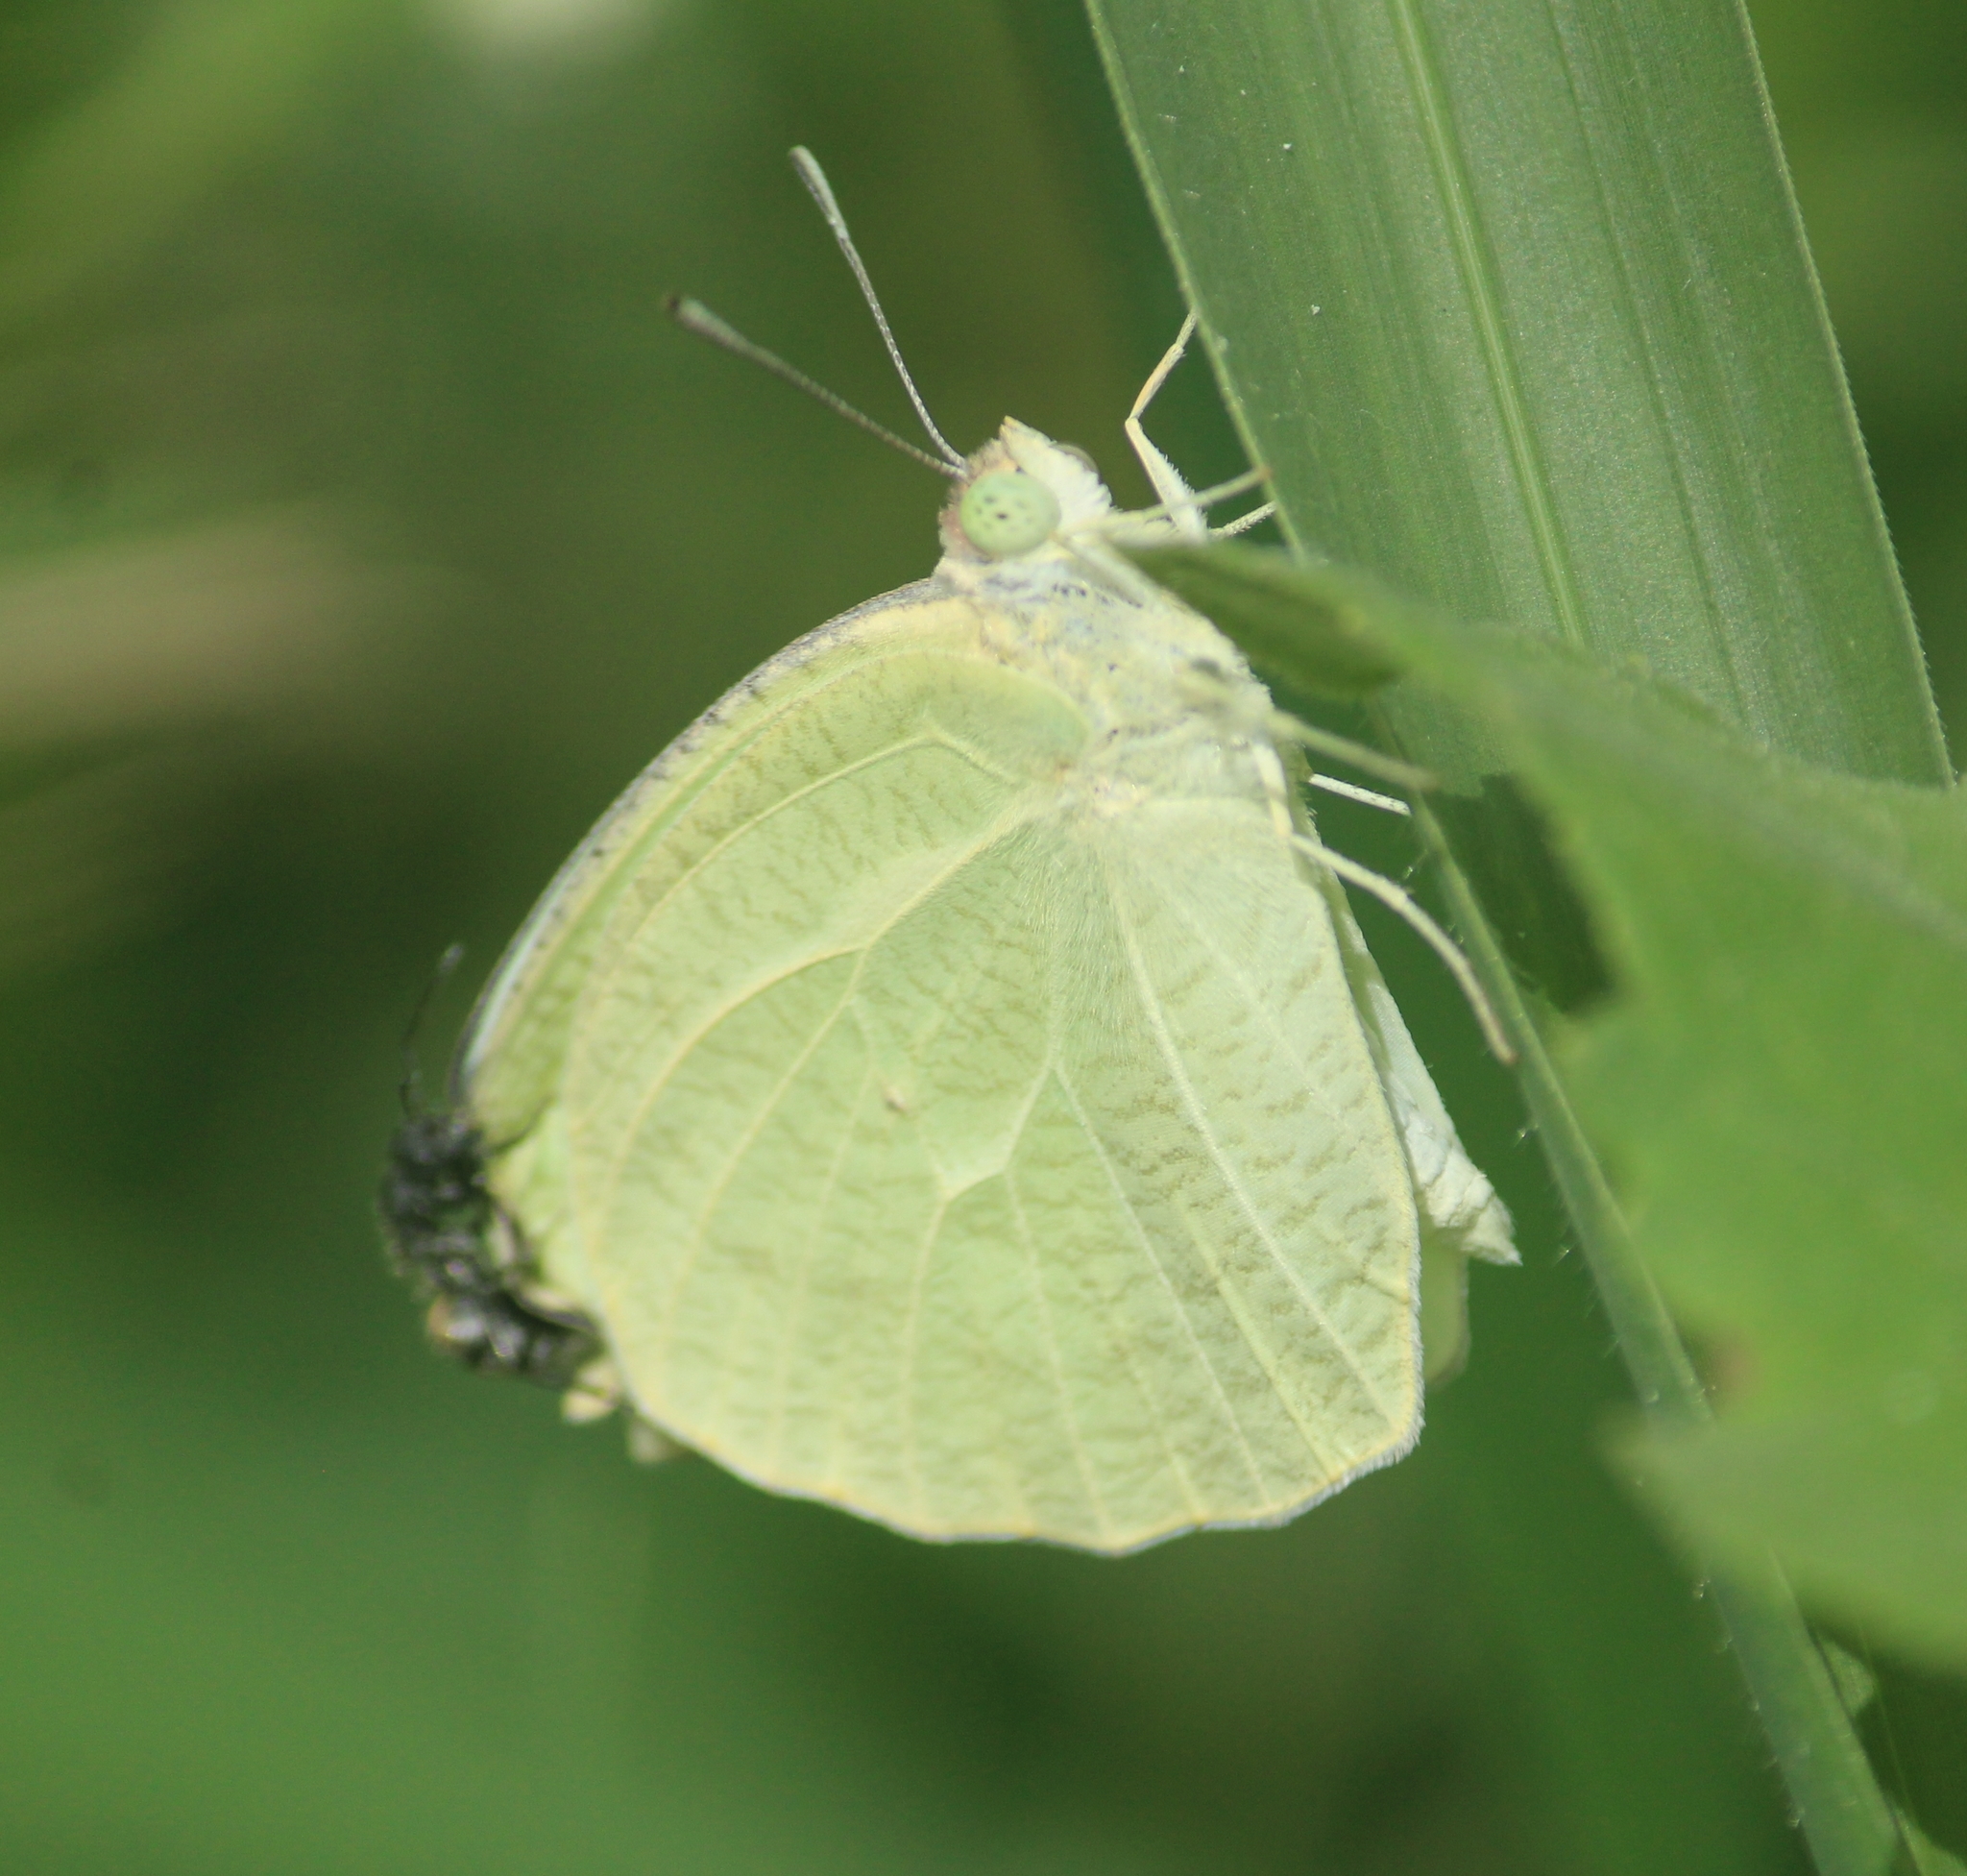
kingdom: Animalia
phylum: Arthropoda
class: Insecta
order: Lepidoptera
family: Pieridae
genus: Catopsilia
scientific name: Catopsilia pyranthe
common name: Mottled emigrant
